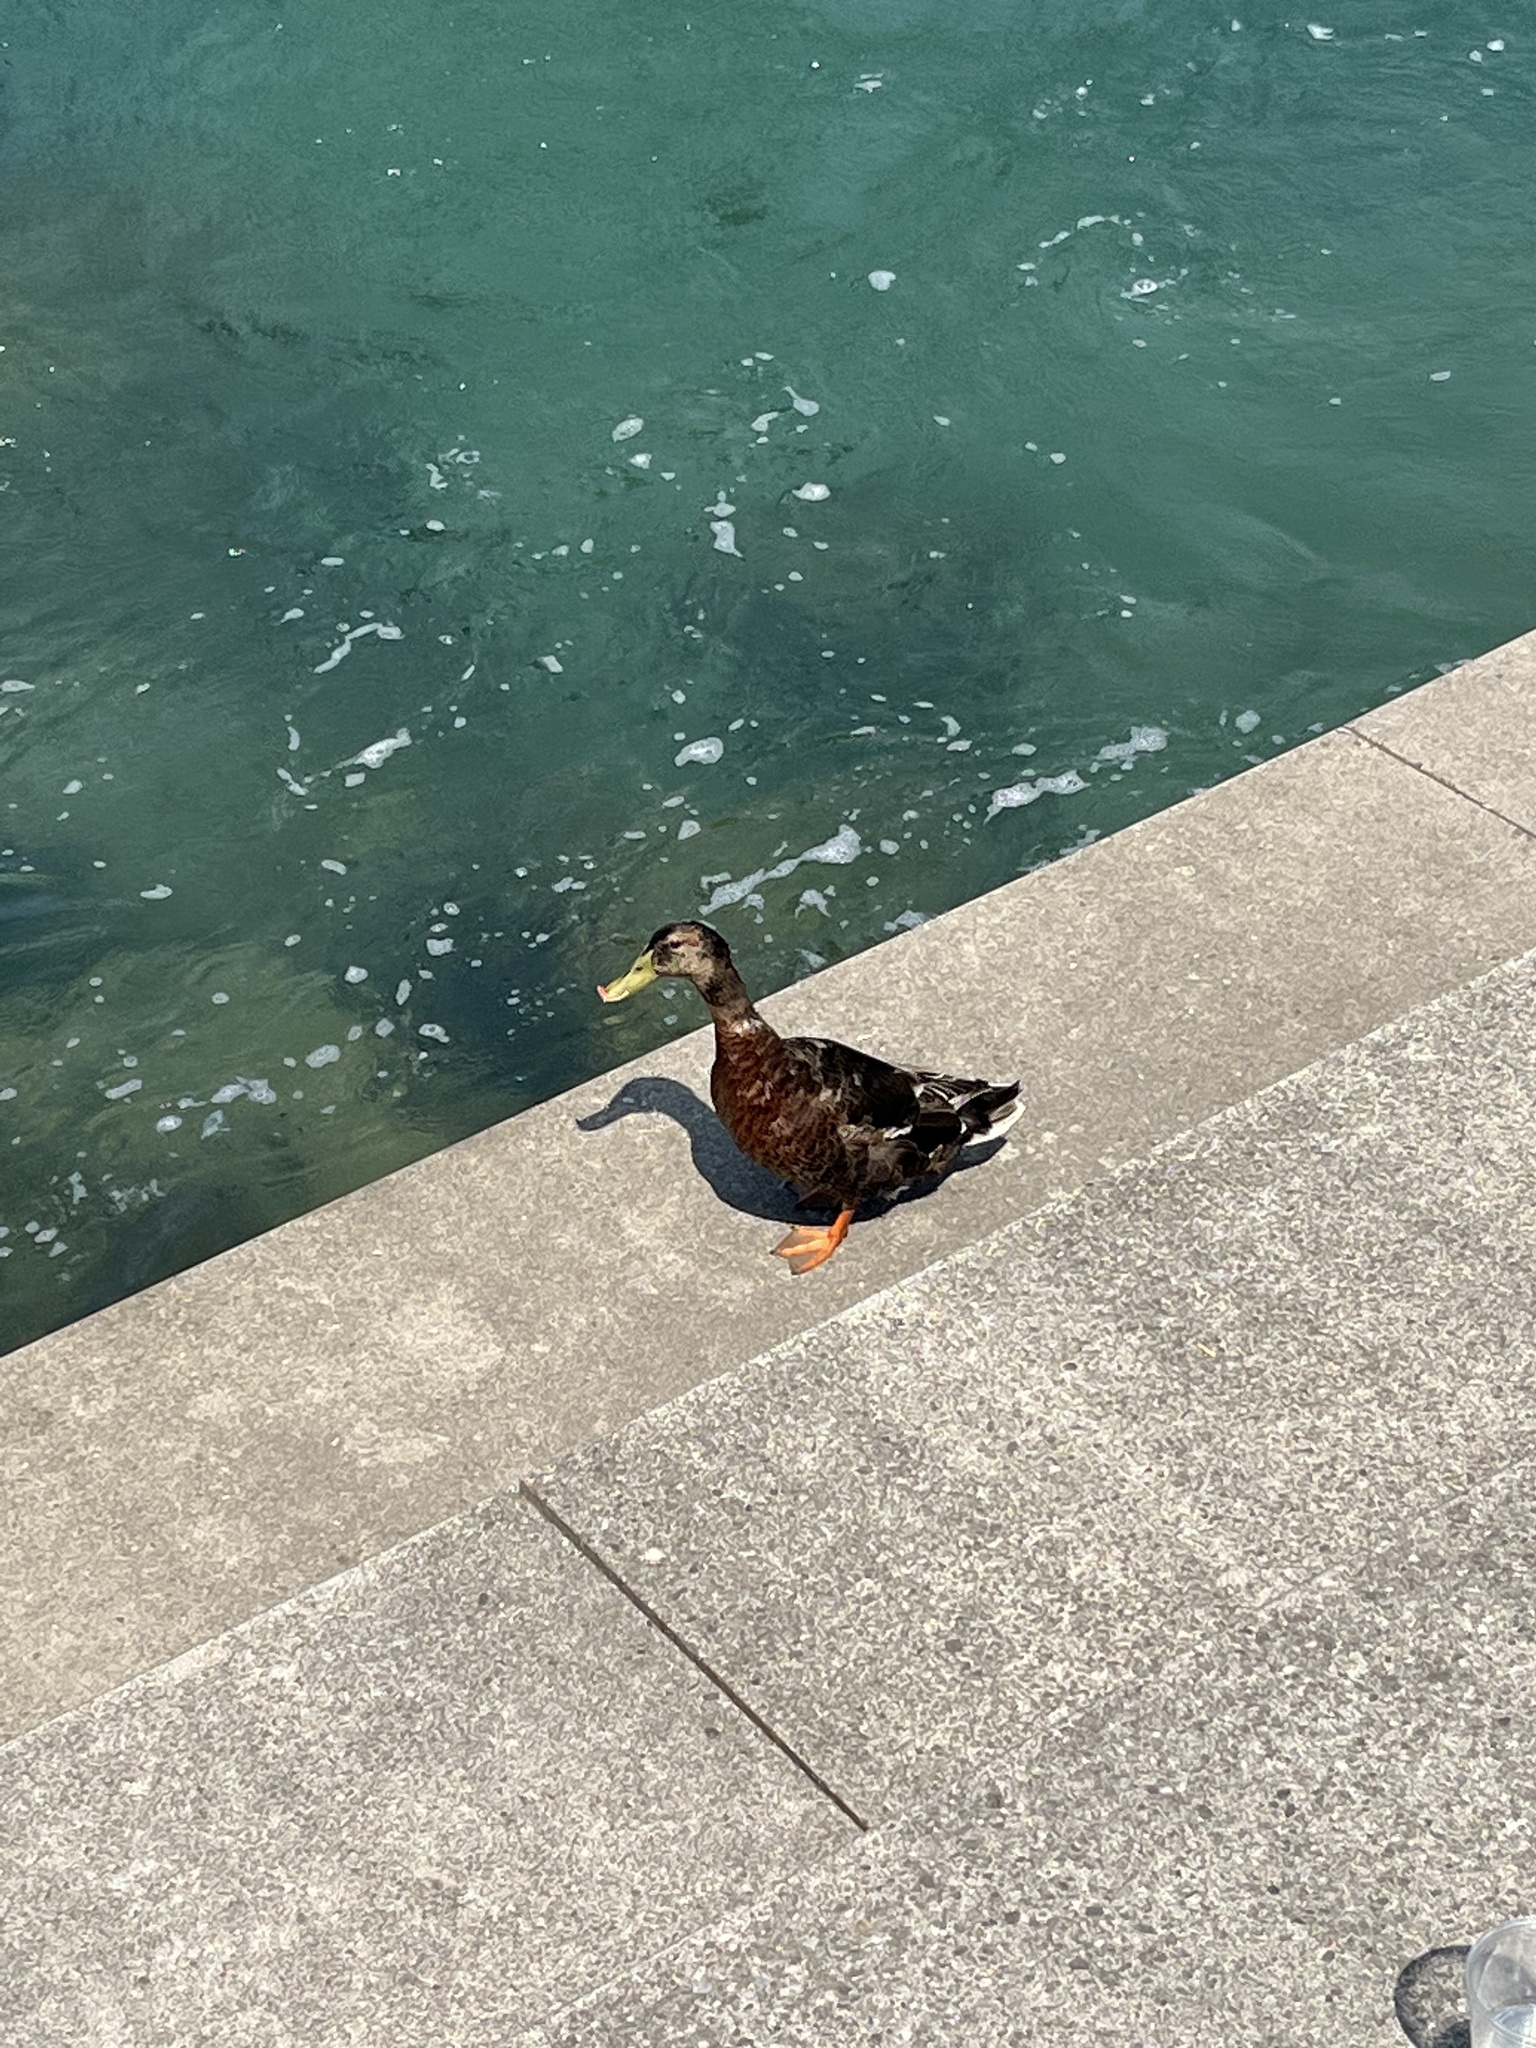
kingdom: Animalia
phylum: Chordata
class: Aves
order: Anseriformes
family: Anatidae
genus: Anas
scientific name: Anas platyrhynchos
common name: Mallard
